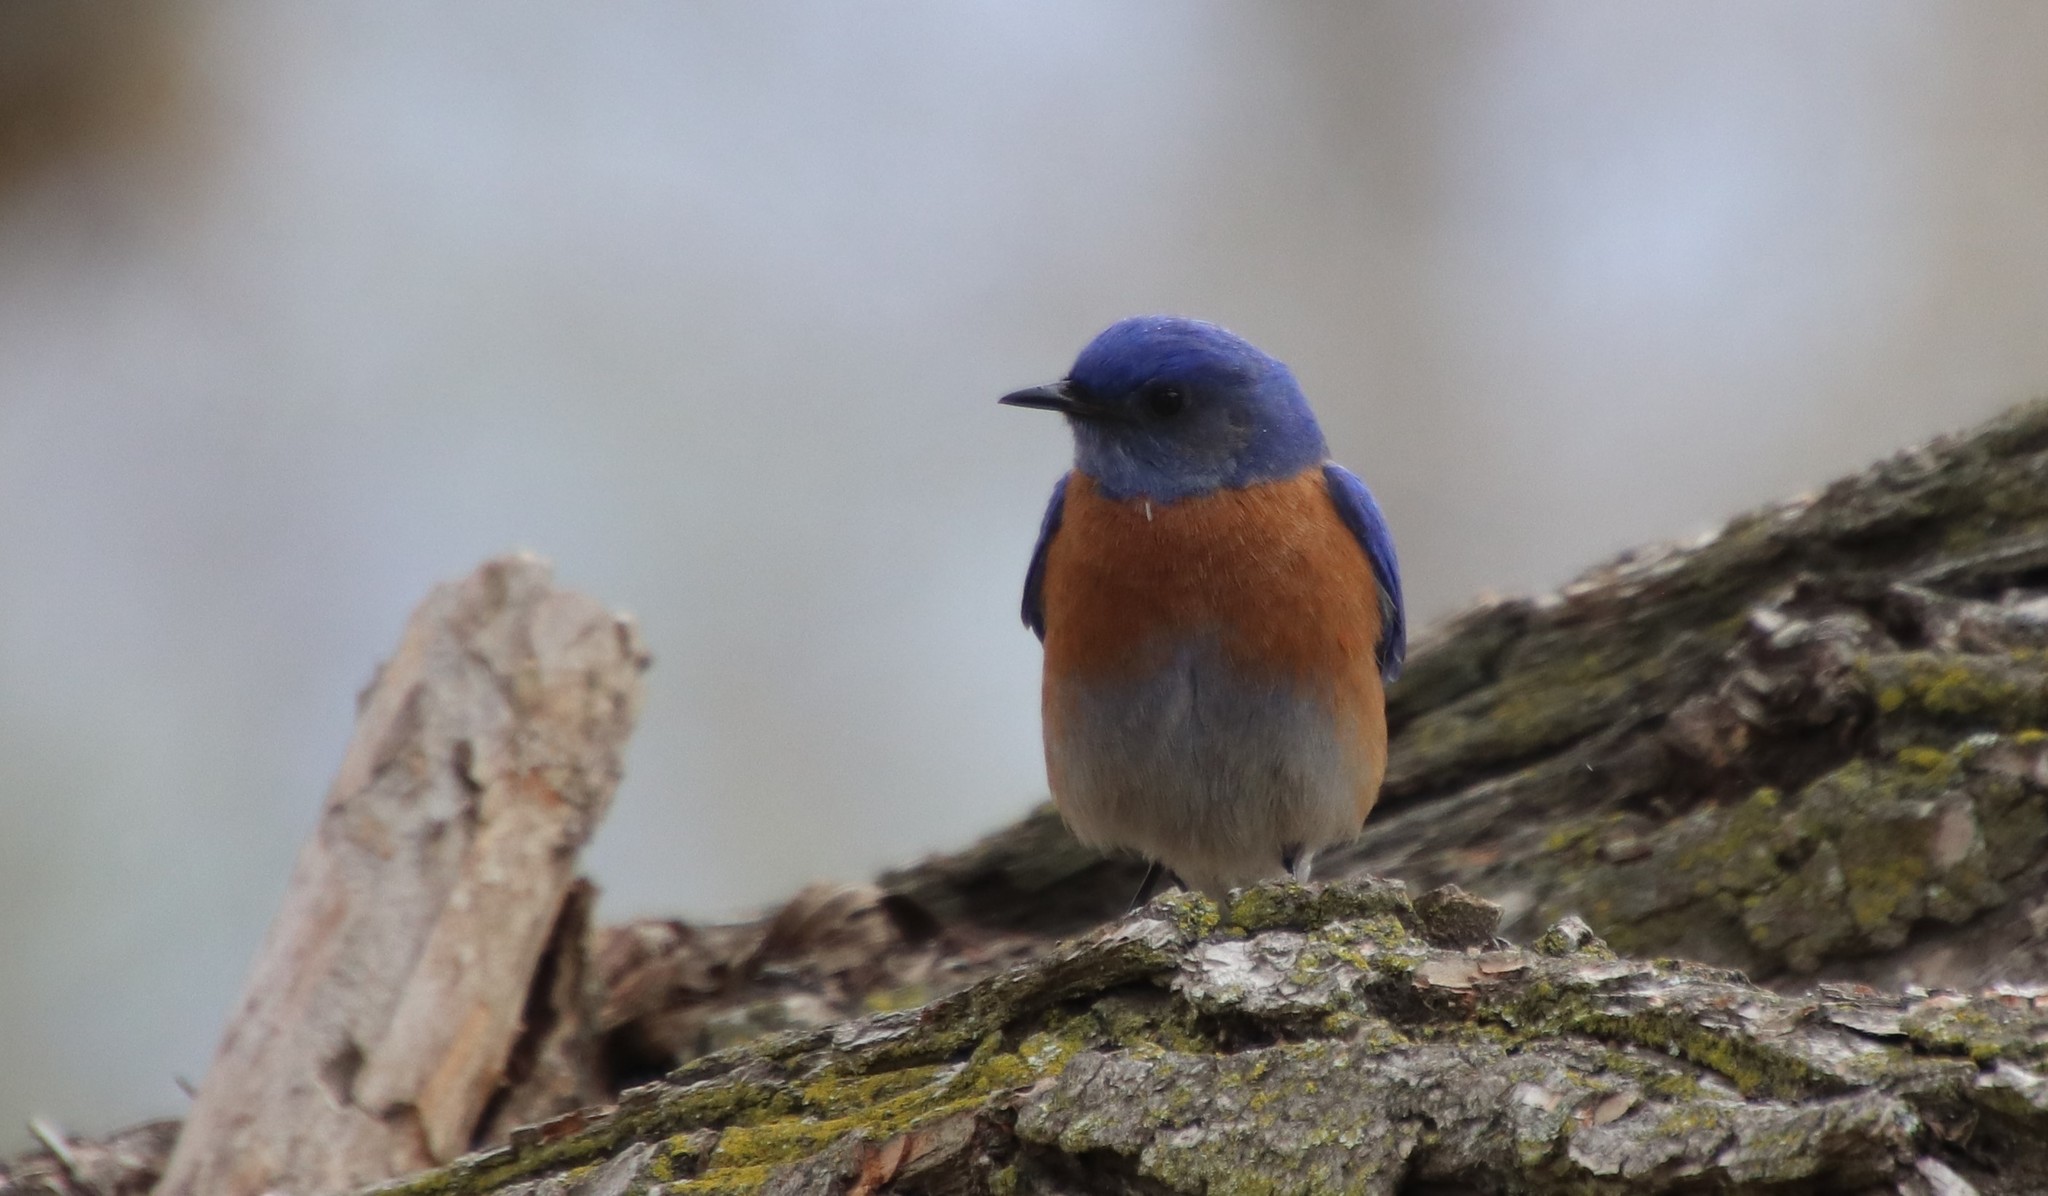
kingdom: Animalia
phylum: Chordata
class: Aves
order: Passeriformes
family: Turdidae
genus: Sialia
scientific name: Sialia mexicana
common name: Western bluebird
